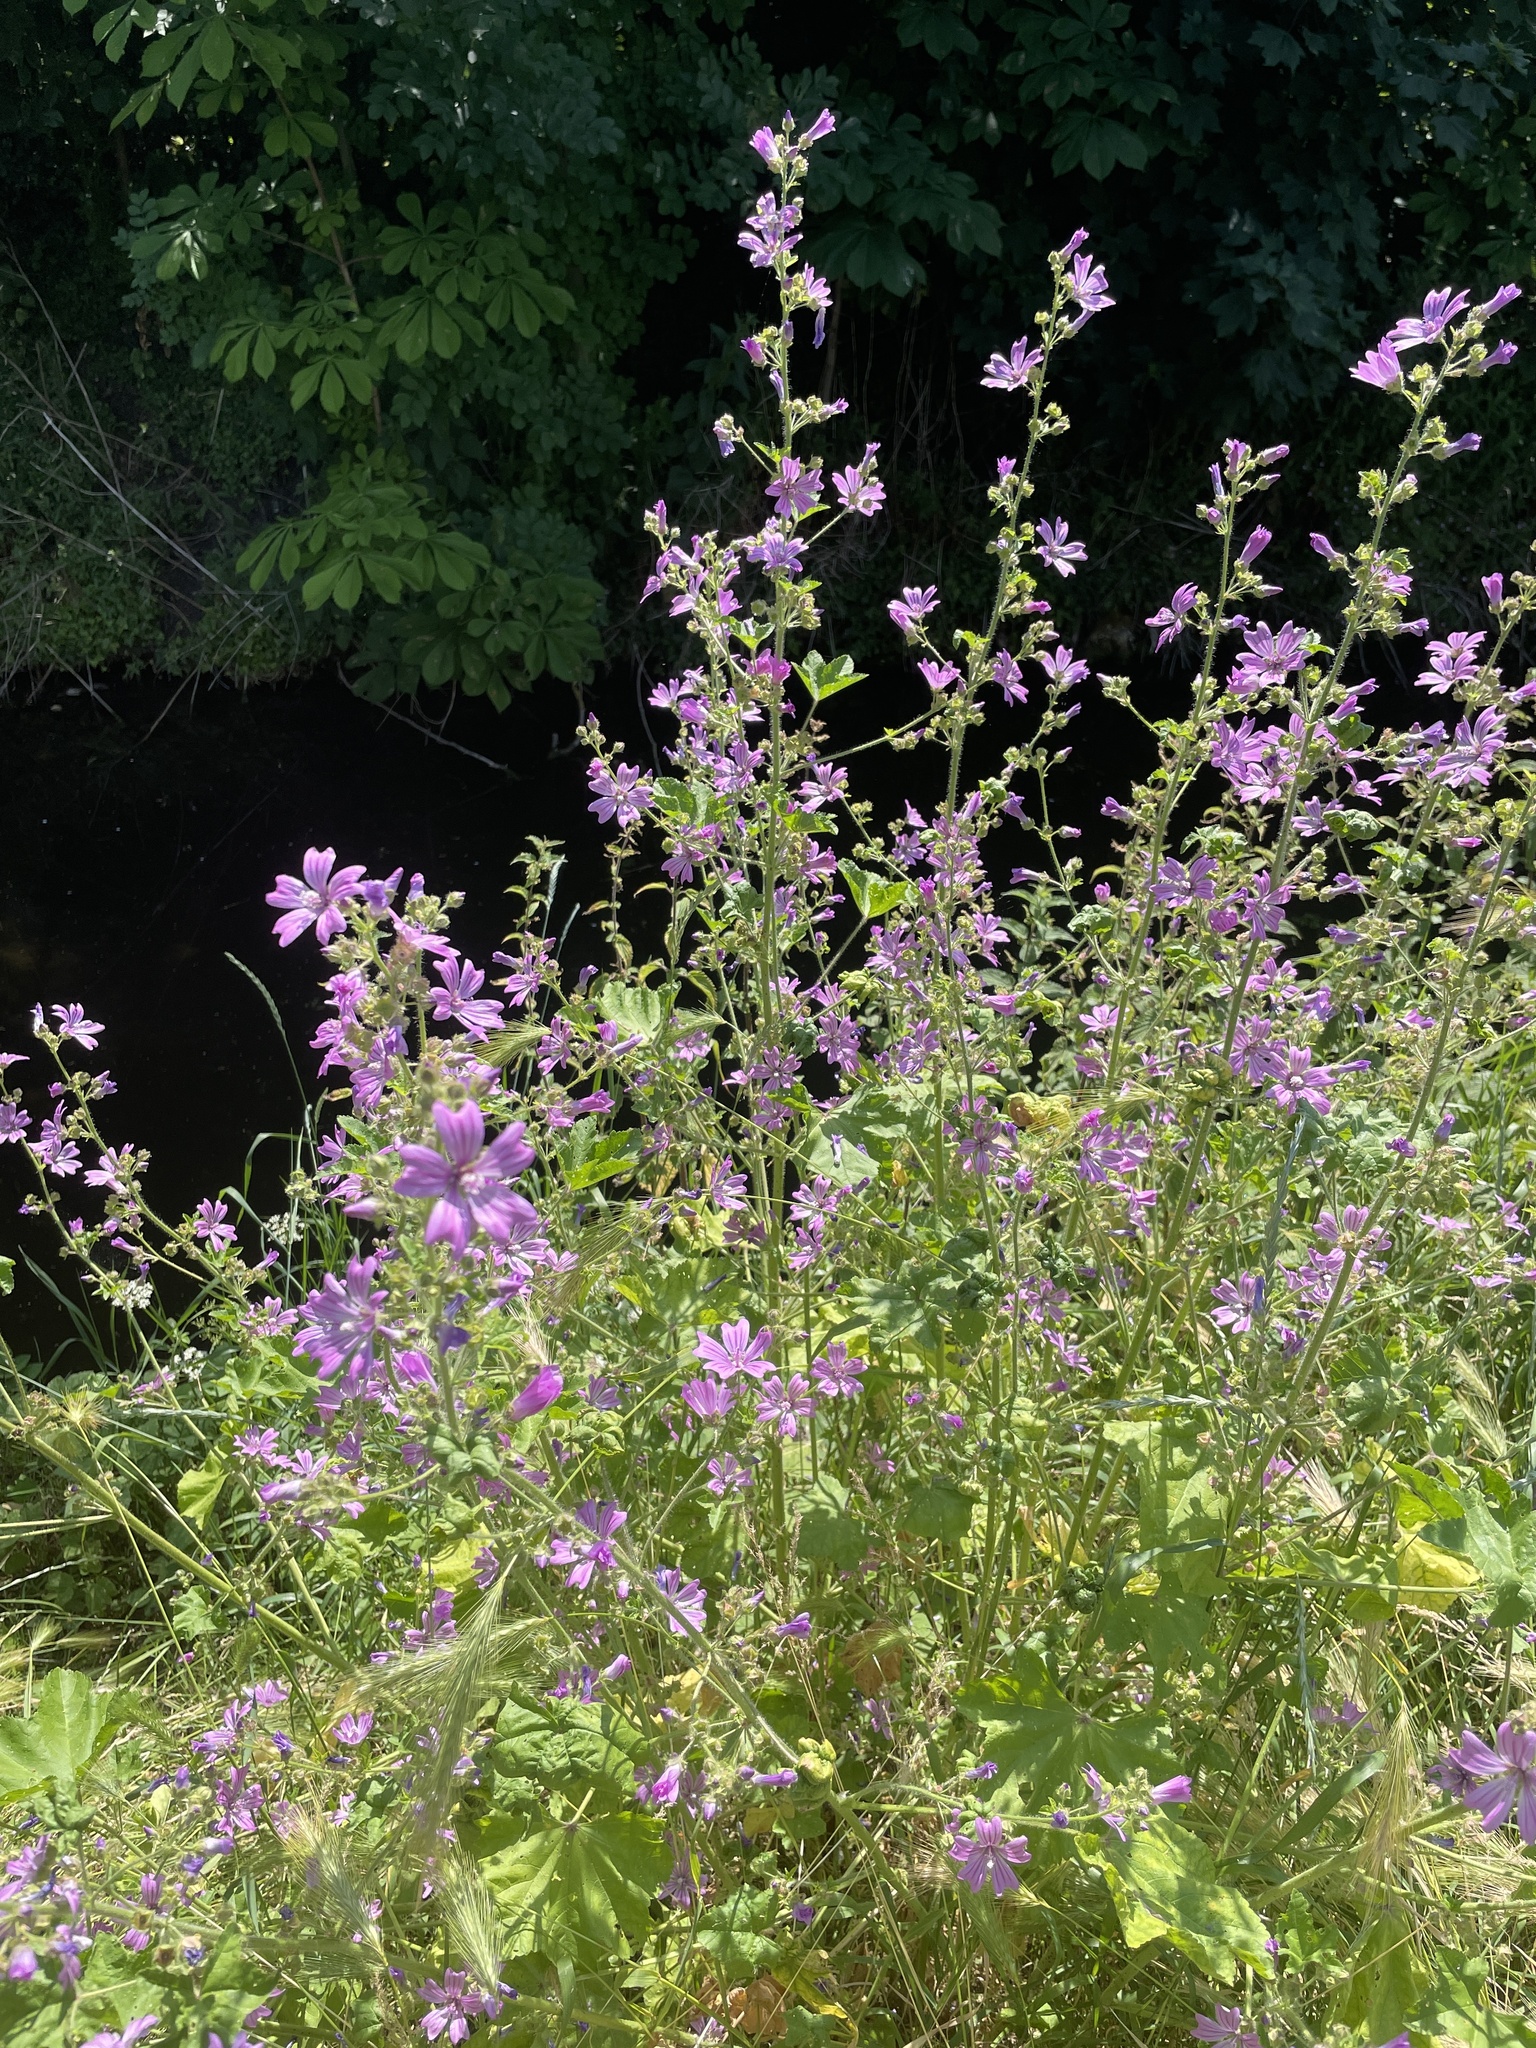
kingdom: Plantae
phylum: Tracheophyta
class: Magnoliopsida
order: Malvales
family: Malvaceae
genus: Malva
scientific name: Malva sylvestris
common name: Common mallow
